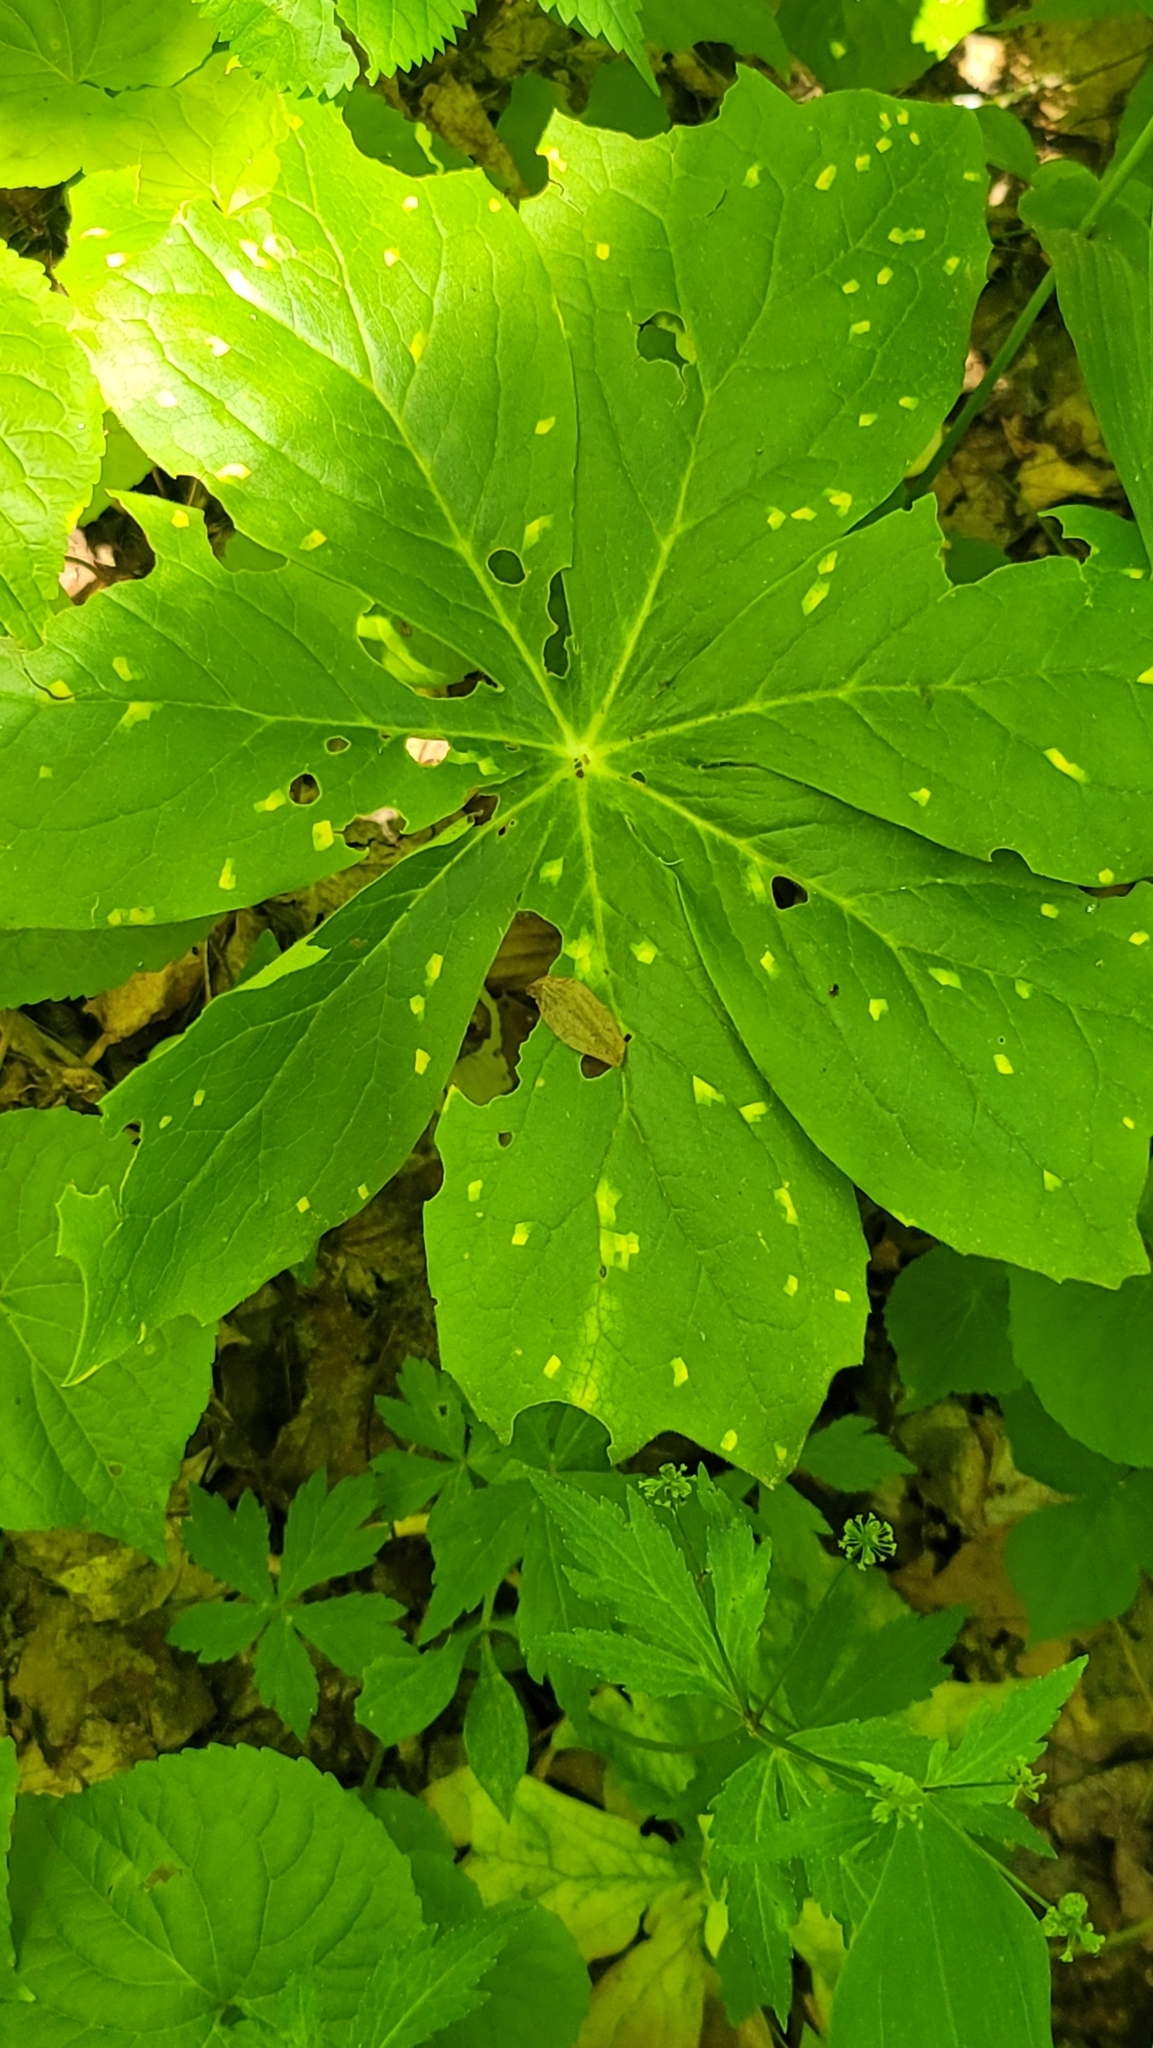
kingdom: Plantae
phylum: Tracheophyta
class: Magnoliopsida
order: Ranunculales
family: Berberidaceae
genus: Podophyllum
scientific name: Podophyllum peltatum
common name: Wild mandrake
